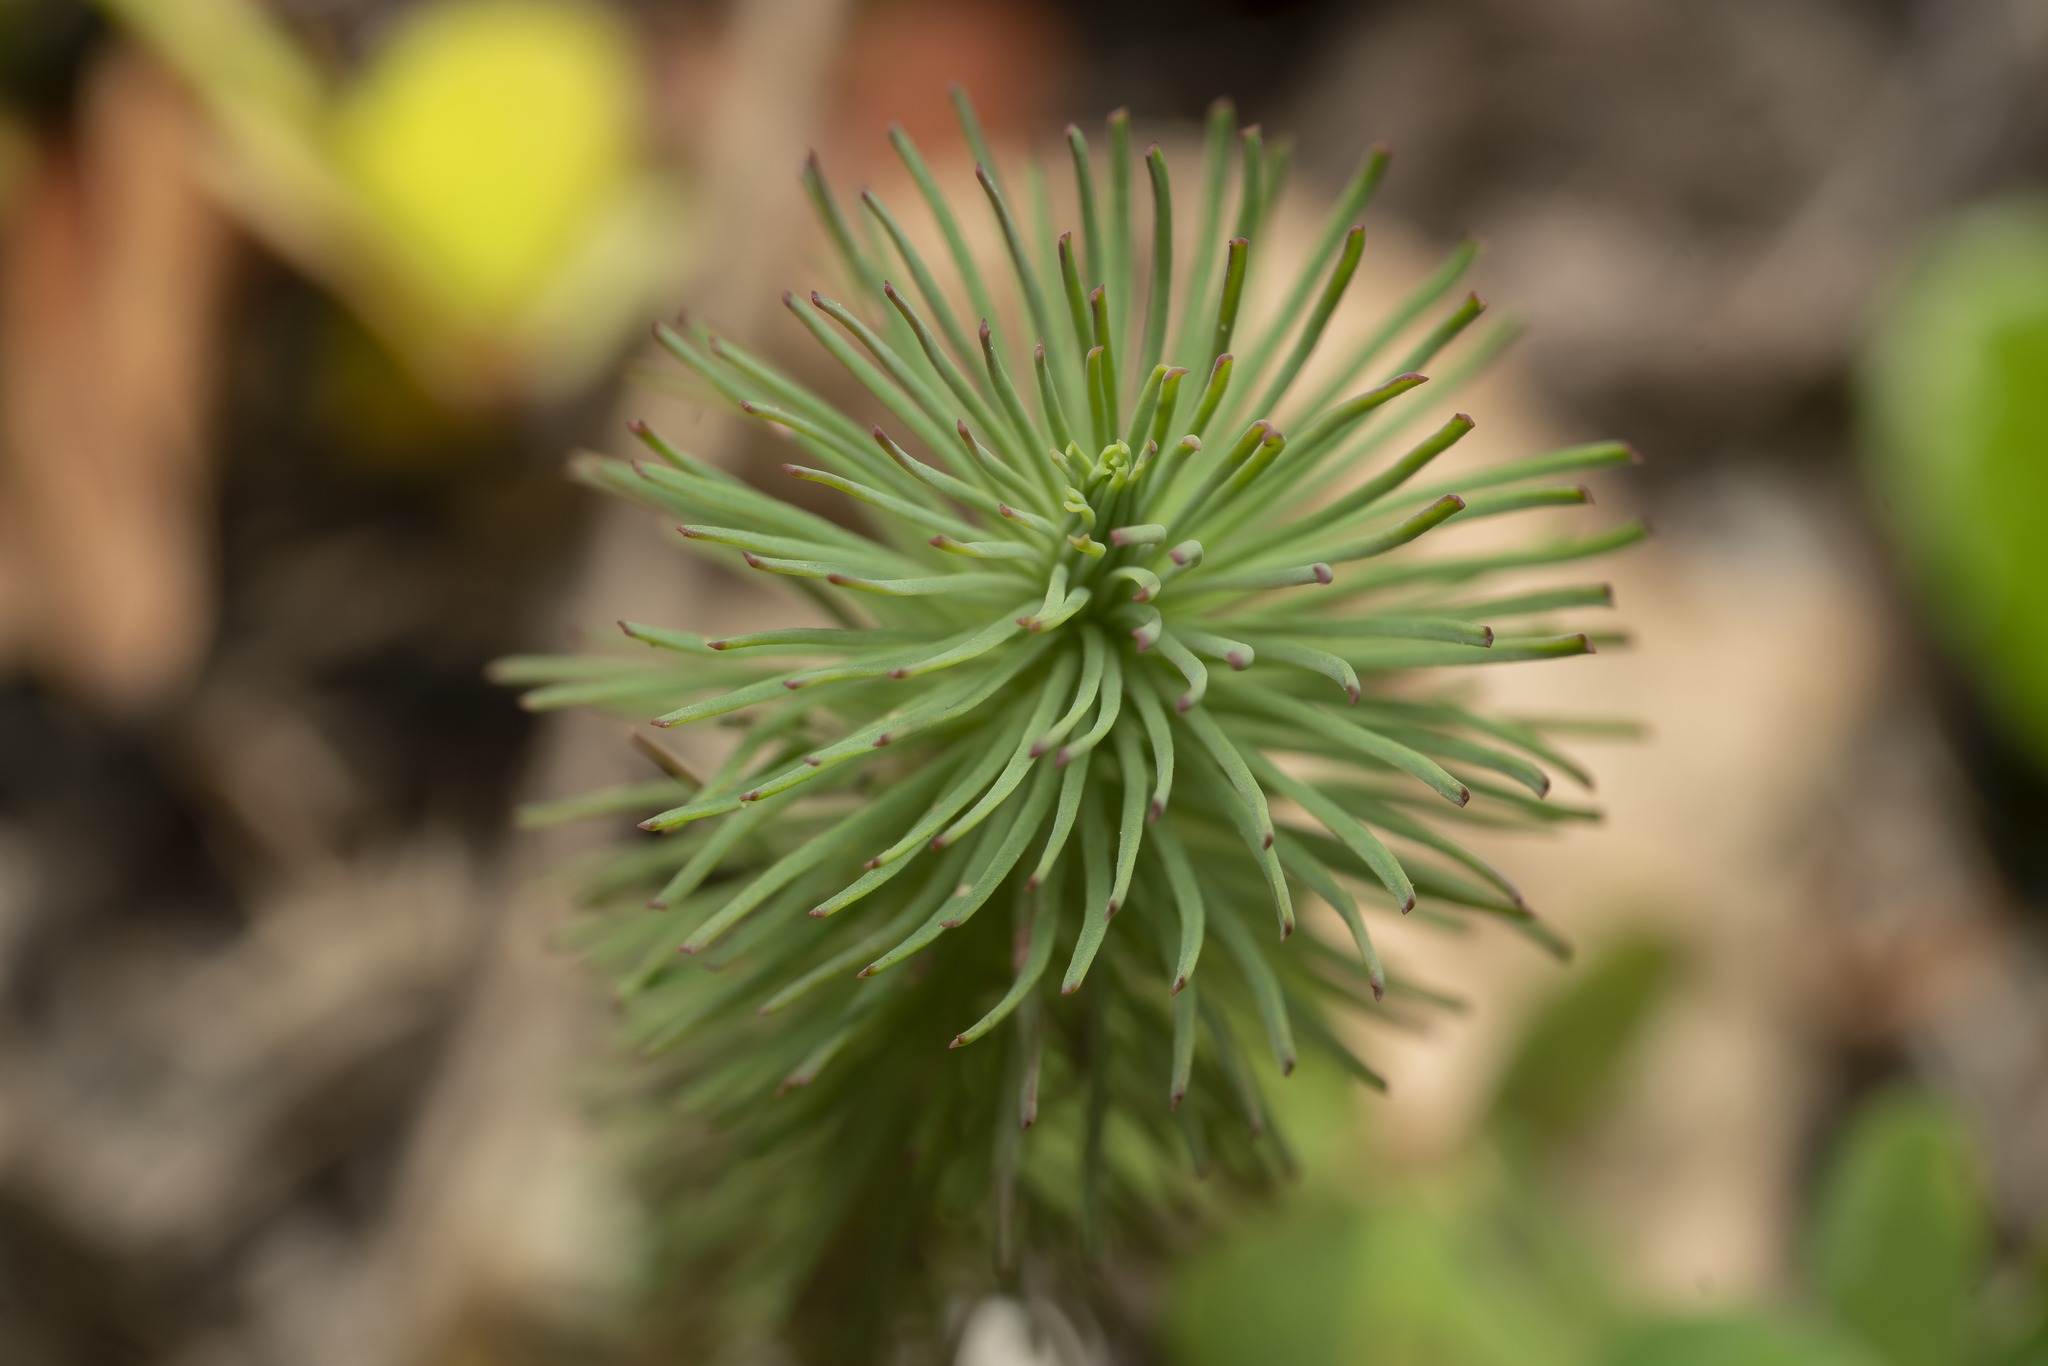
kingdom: Plantae
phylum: Tracheophyta
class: Magnoliopsida
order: Malpighiales
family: Euphorbiaceae
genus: Euphorbia
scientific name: Euphorbia aleppica
